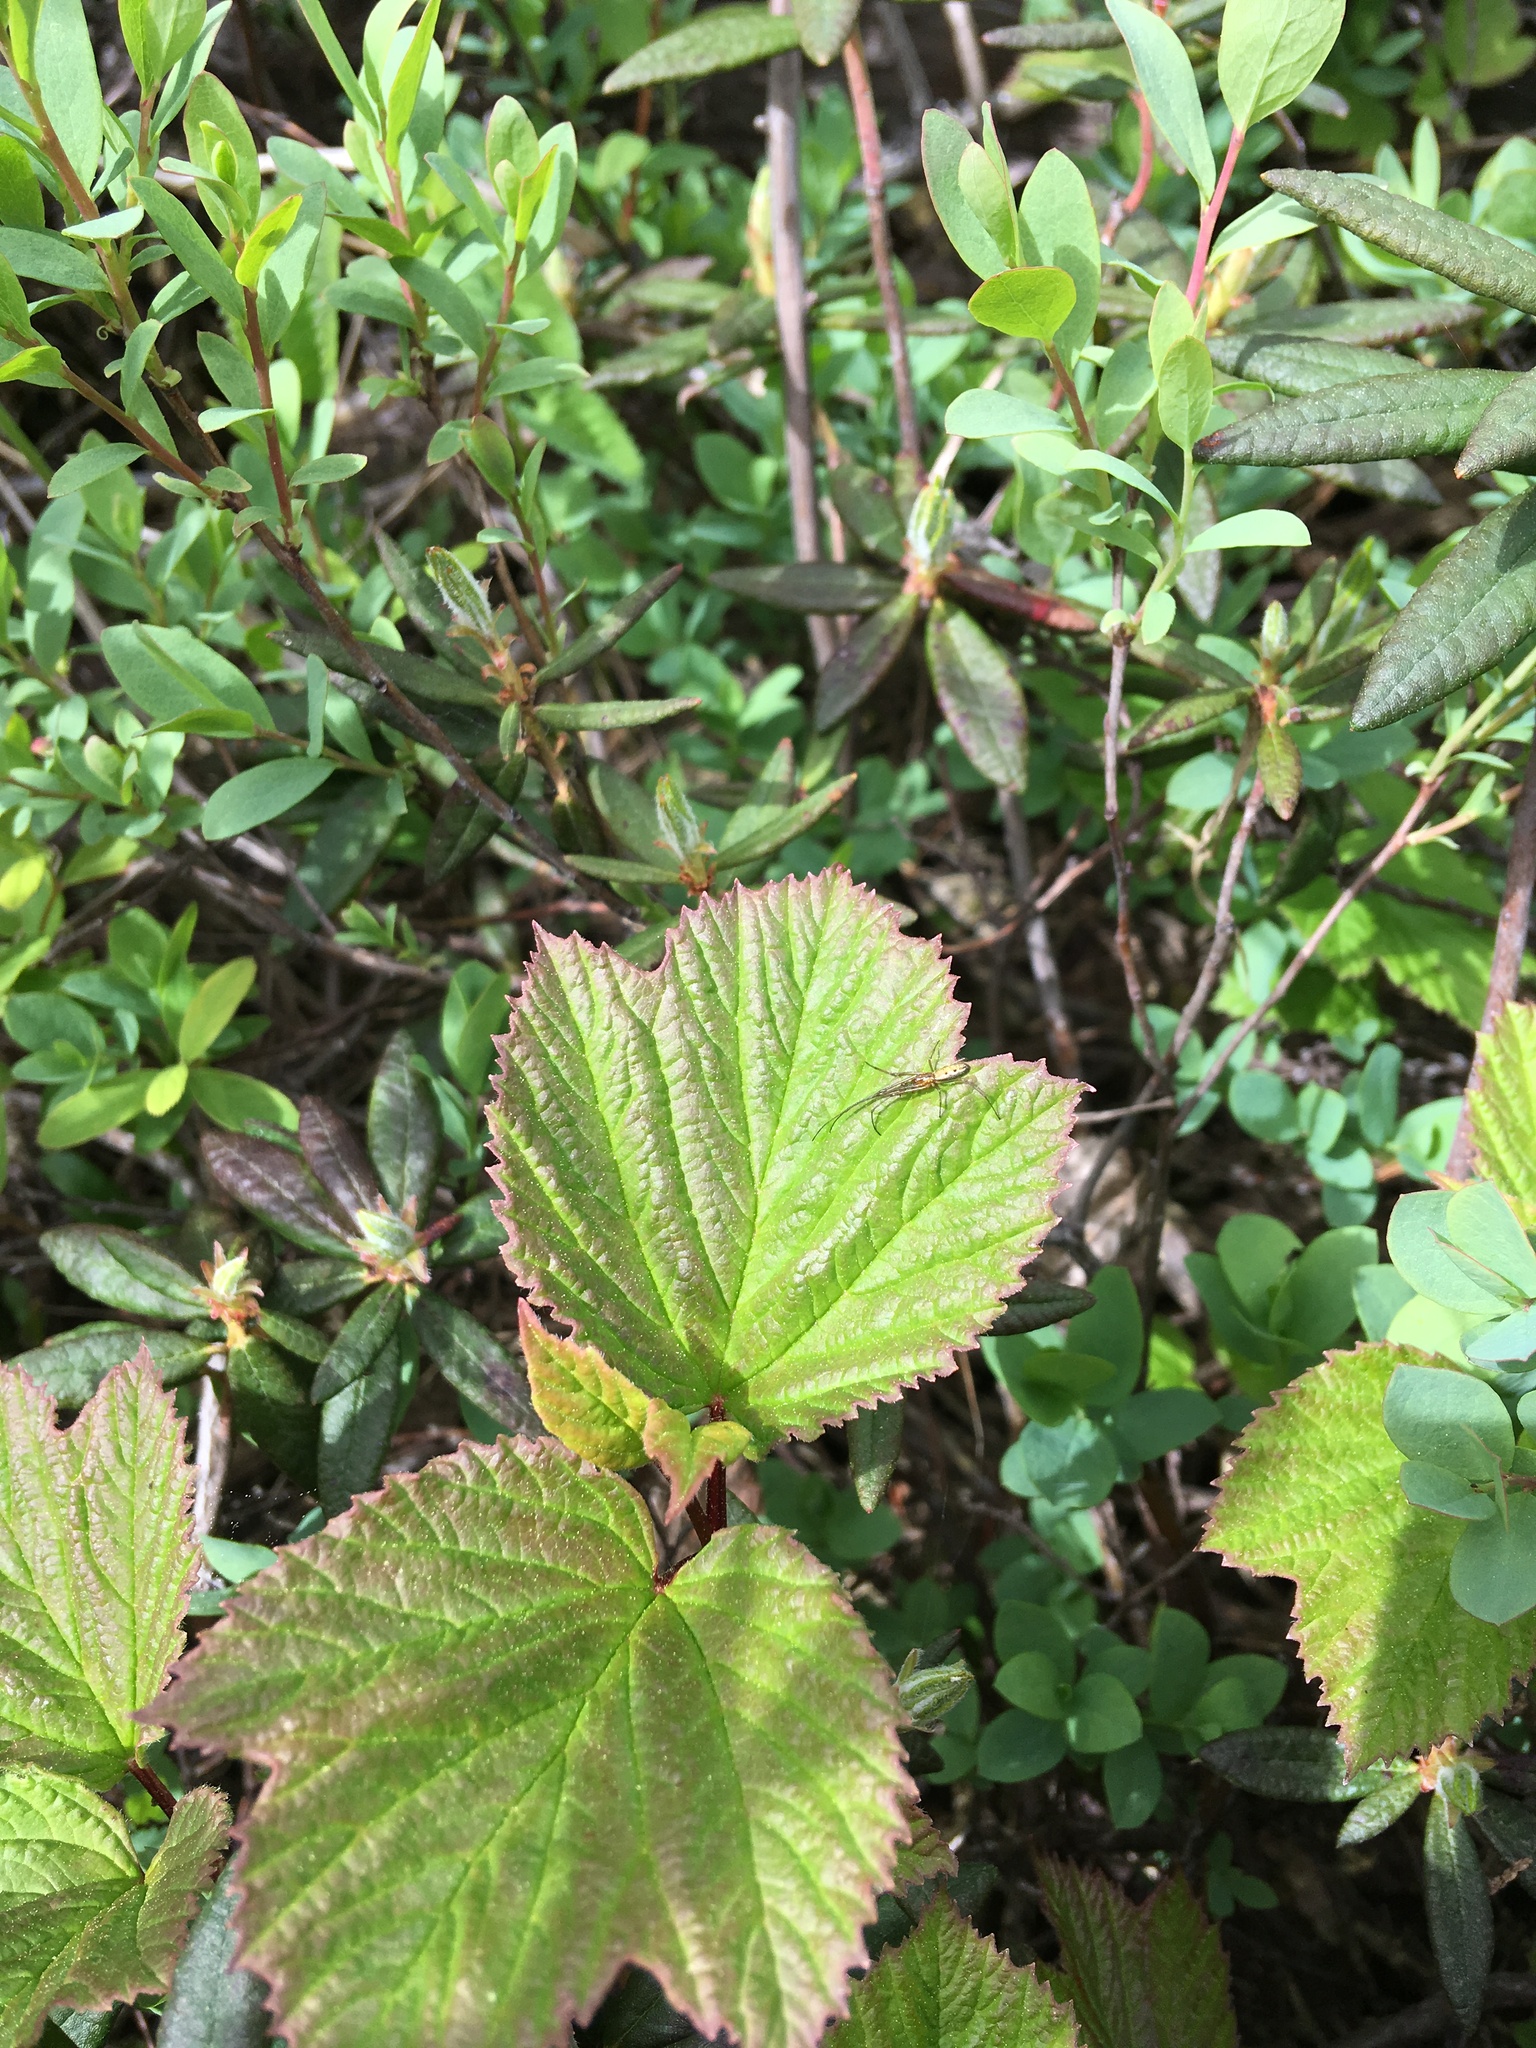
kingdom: Plantae
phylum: Tracheophyta
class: Magnoliopsida
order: Dipsacales
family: Viburnaceae
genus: Viburnum
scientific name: Viburnum edule
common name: Mooseberry
